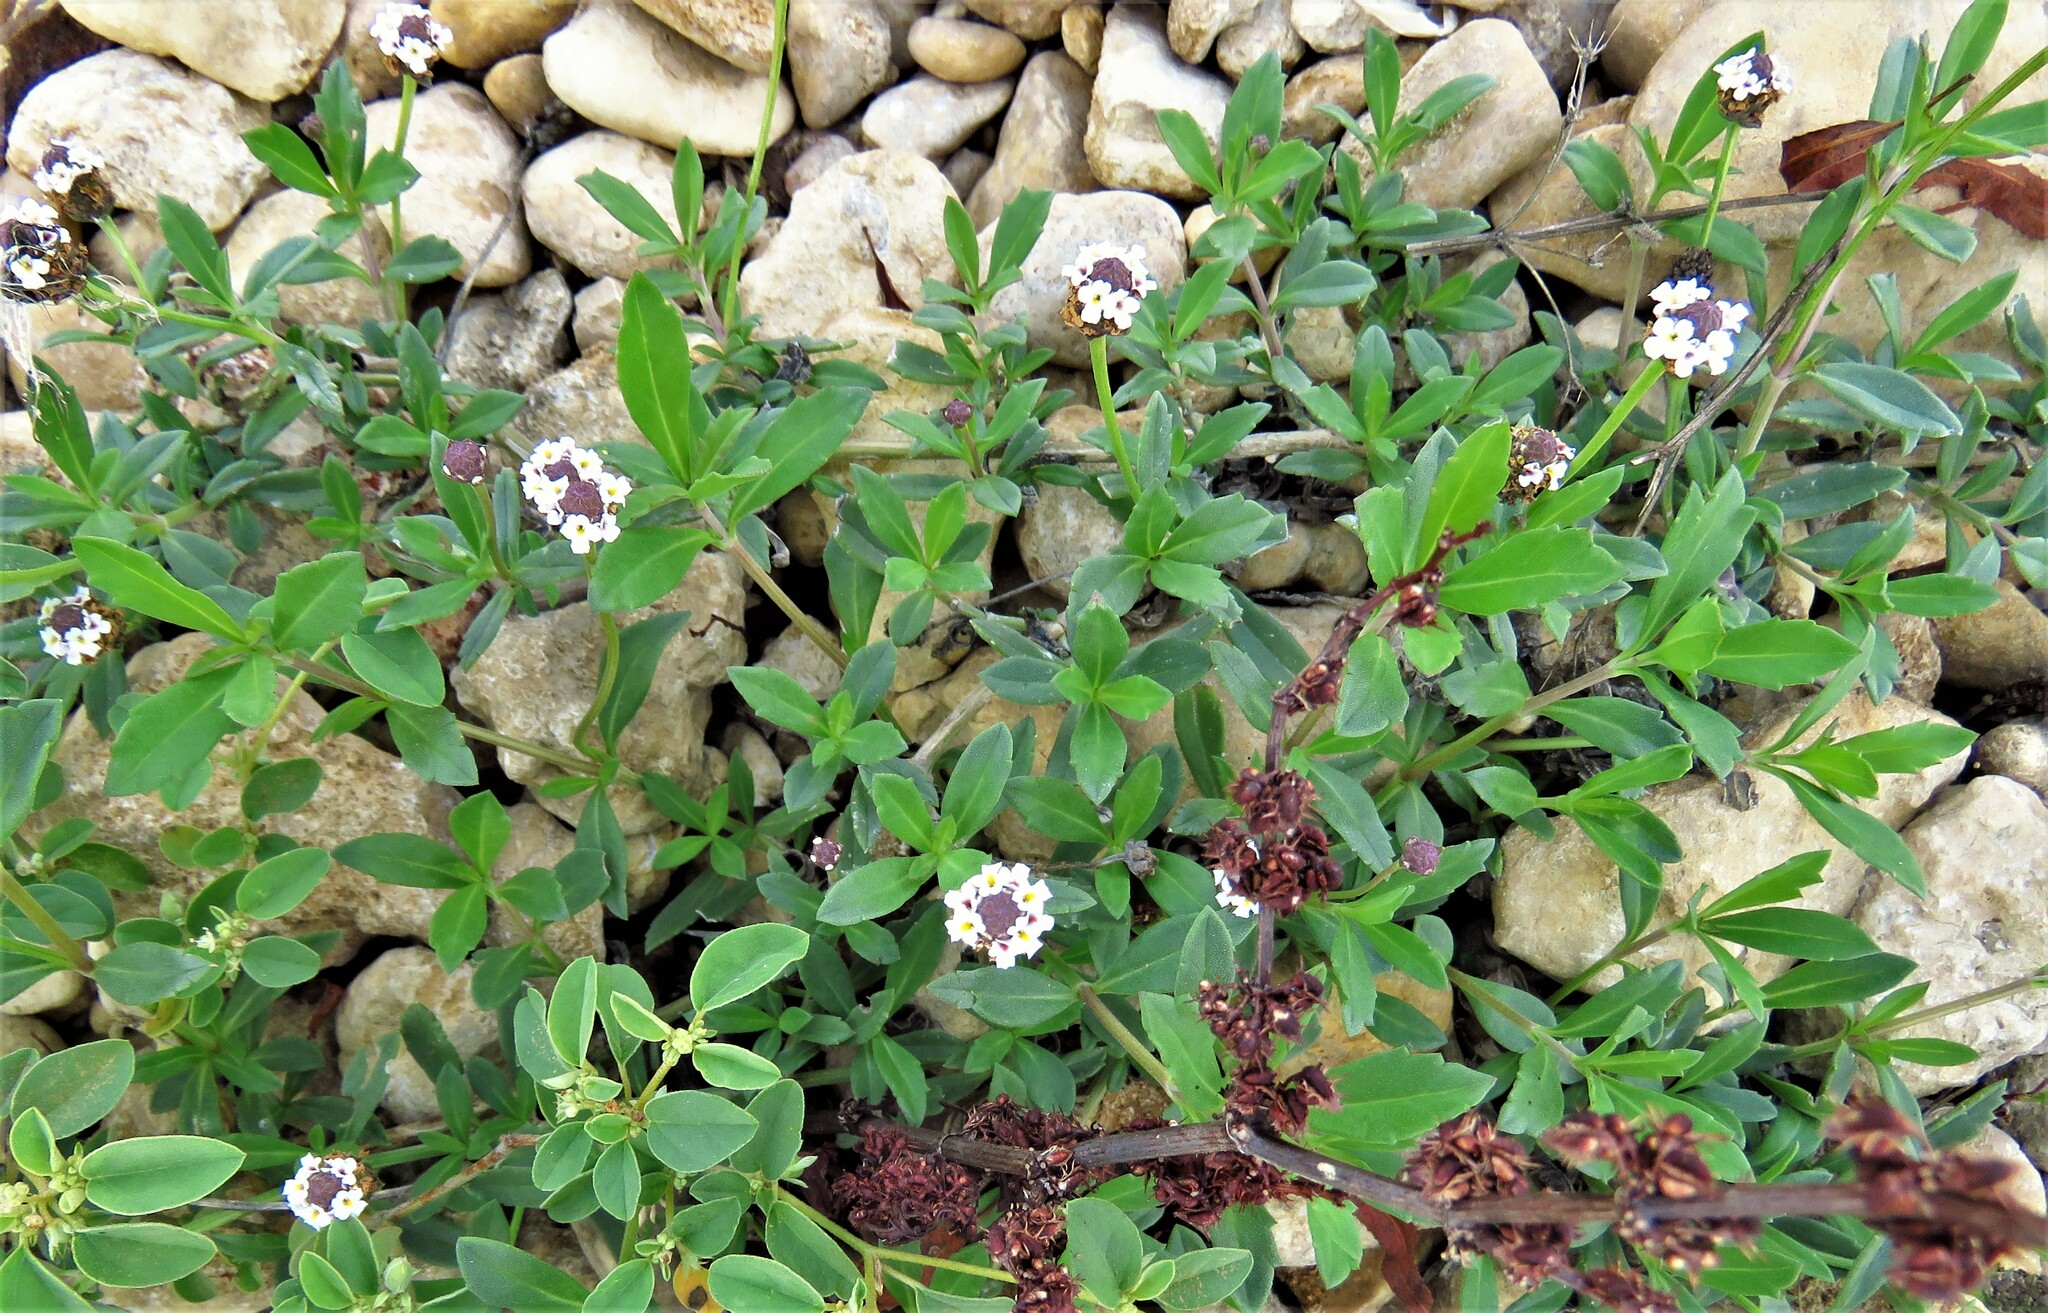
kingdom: Plantae
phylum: Tracheophyta
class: Magnoliopsida
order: Lamiales
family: Verbenaceae
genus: Phyla
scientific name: Phyla nodiflora
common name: Frogfruit
